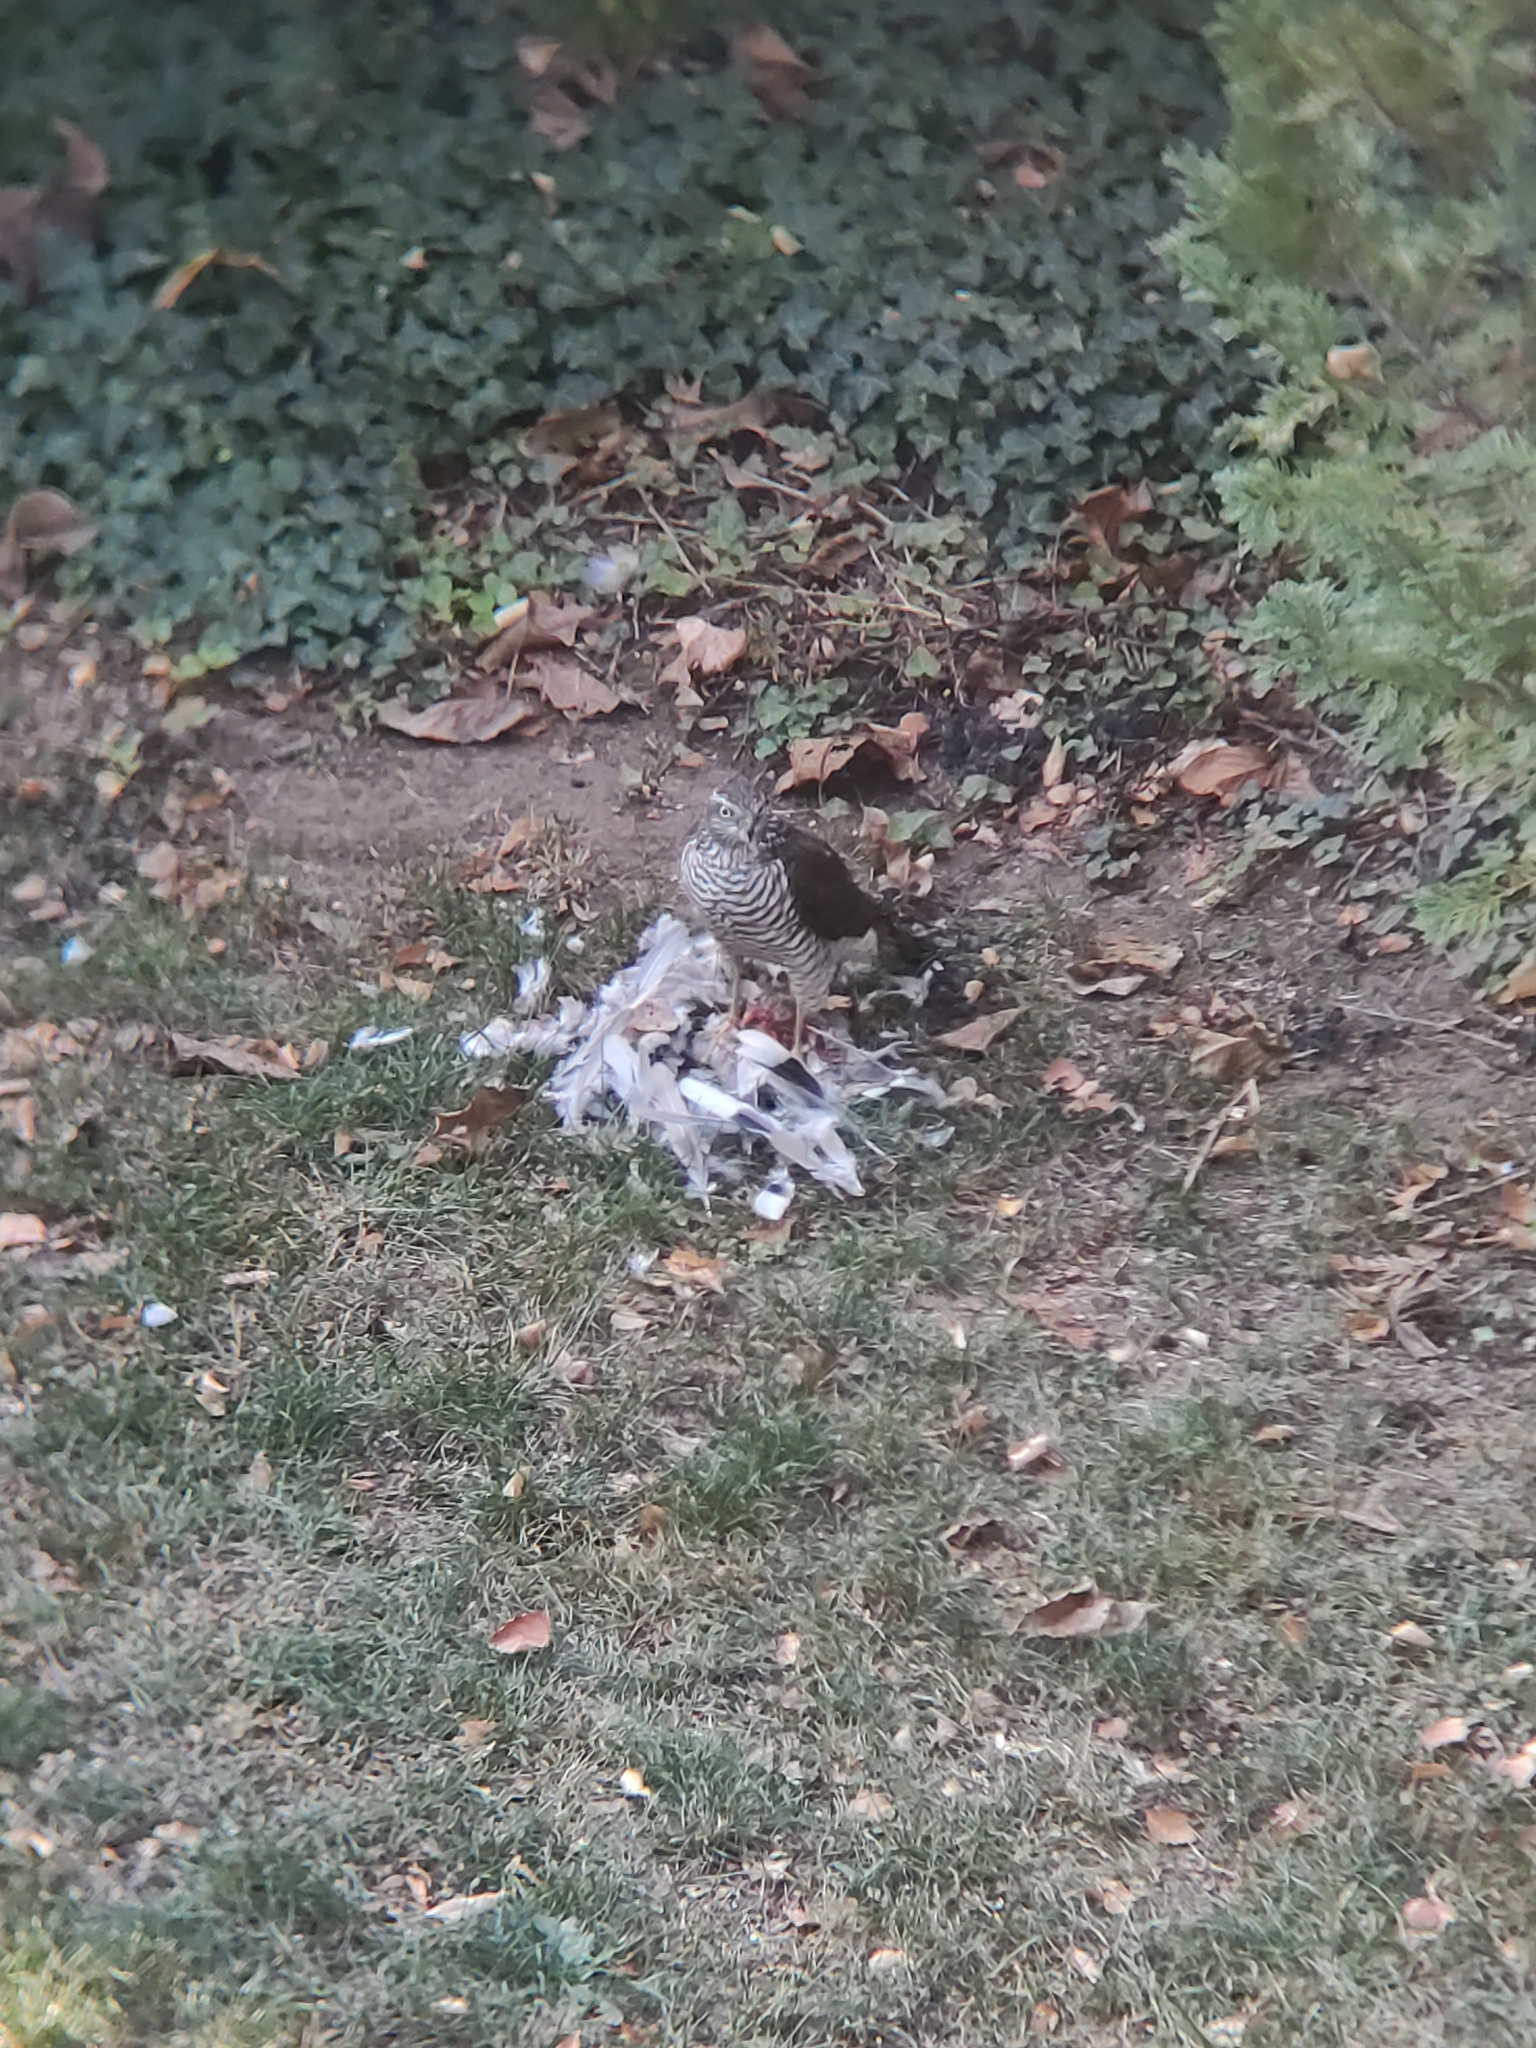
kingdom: Animalia
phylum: Chordata
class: Aves
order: Accipitriformes
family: Accipitridae
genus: Accipiter
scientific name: Accipiter nisus
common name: Eurasian sparrowhawk
